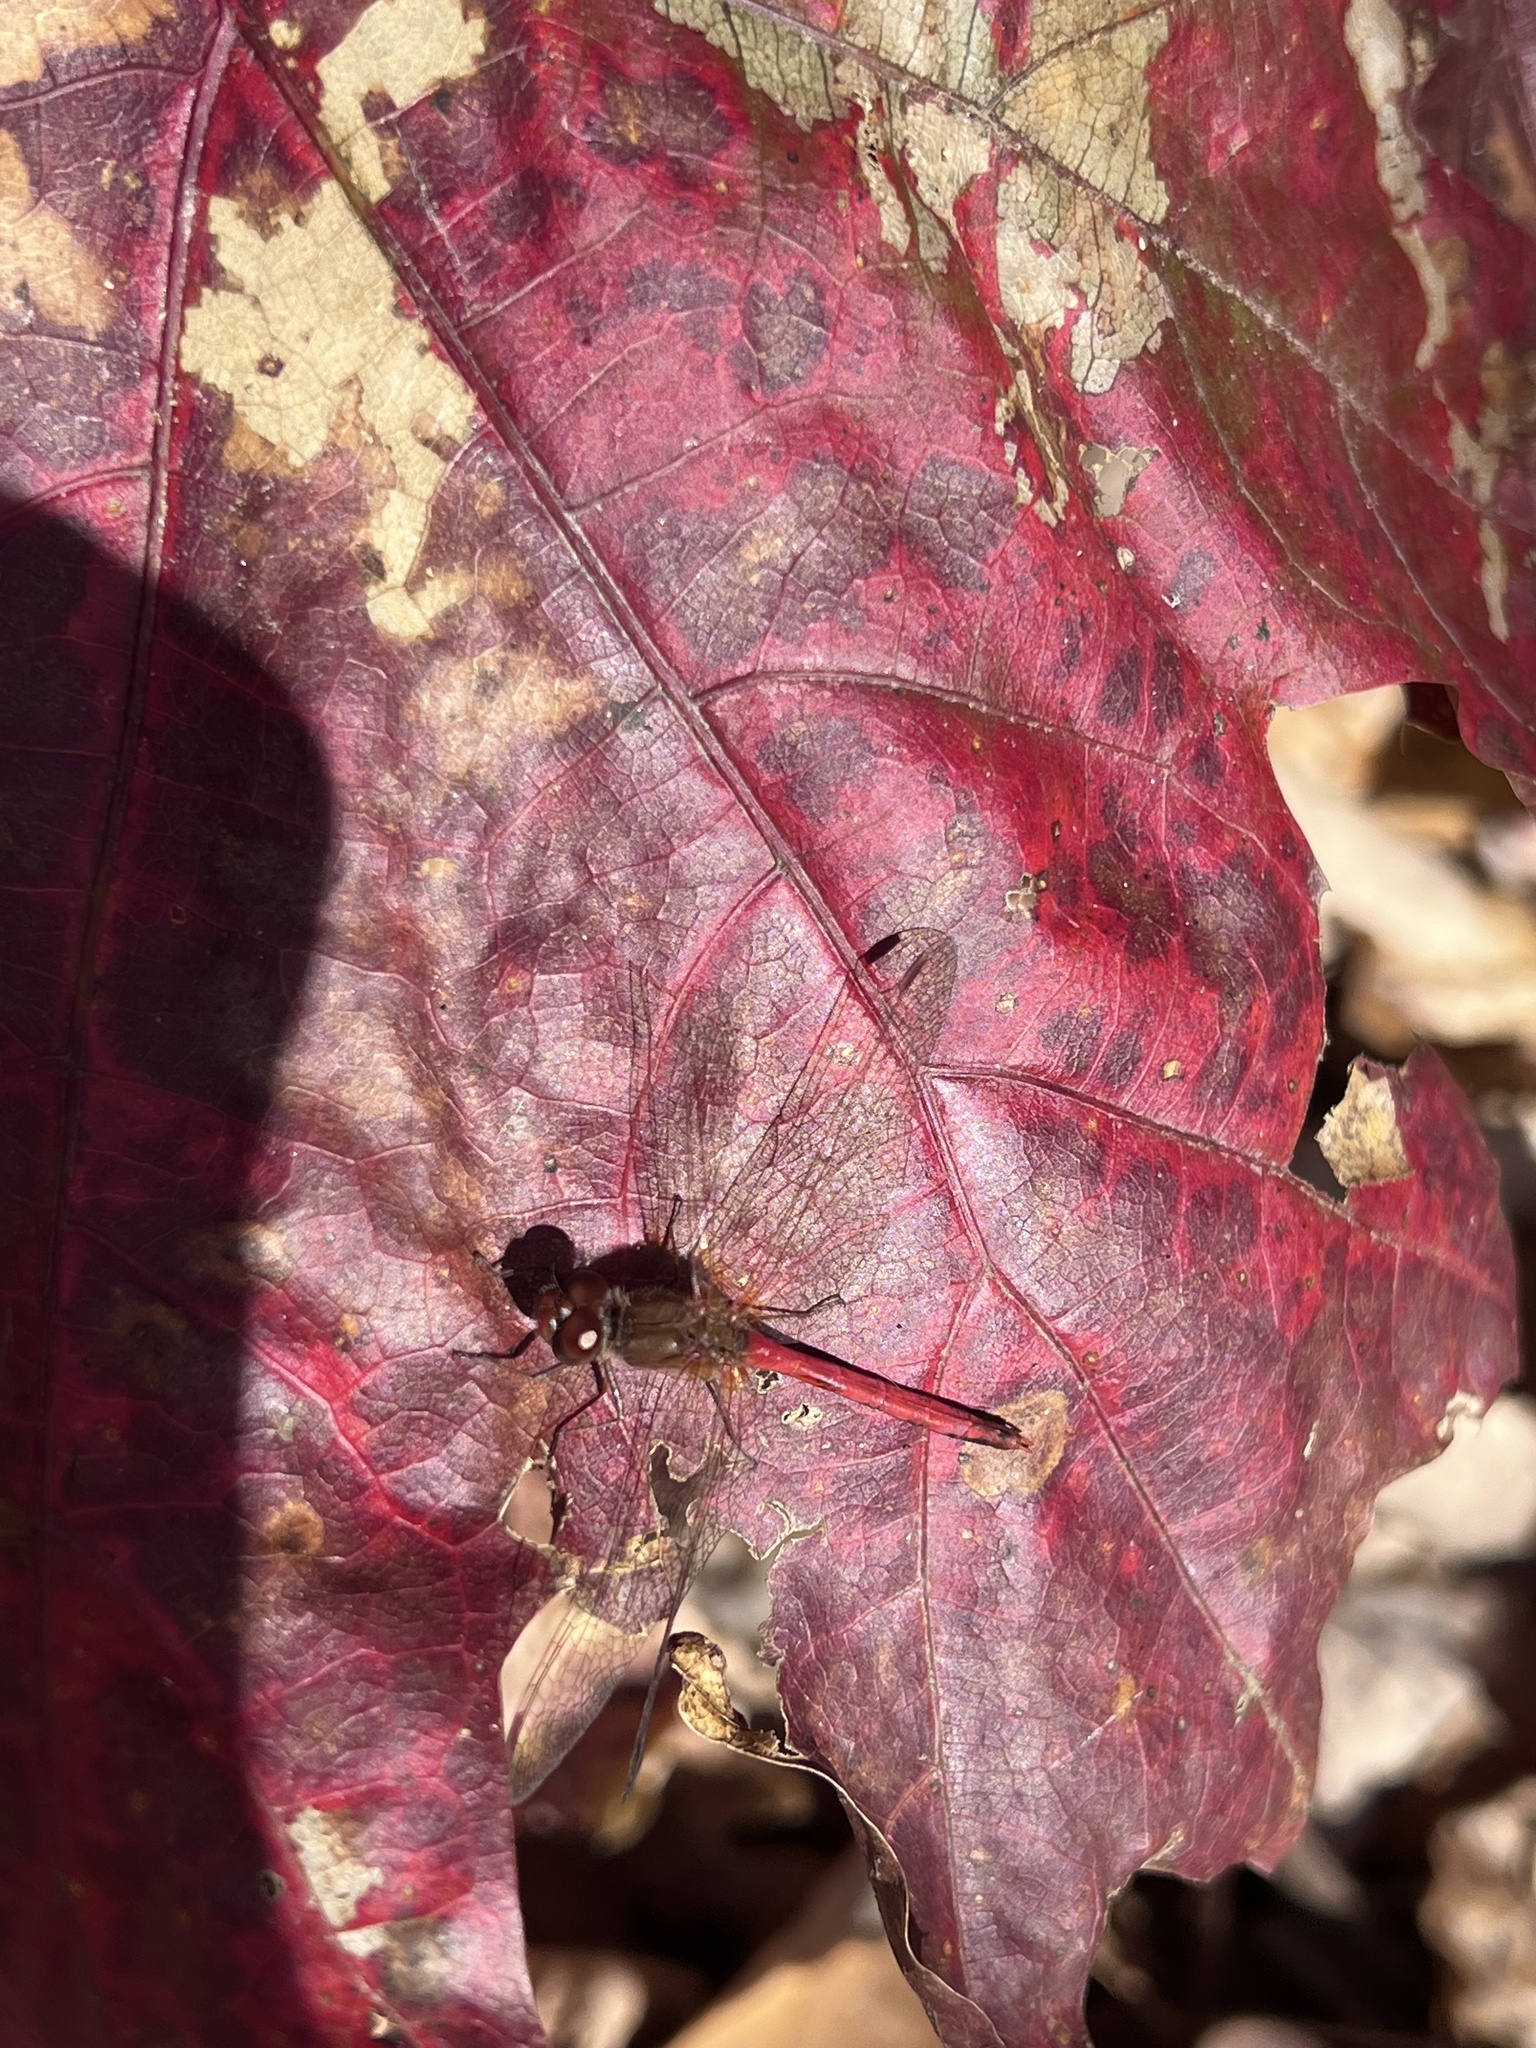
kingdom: Animalia
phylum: Arthropoda
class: Insecta
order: Odonata
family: Libellulidae
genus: Sympetrum
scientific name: Sympetrum vicinum
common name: Autumn meadowhawk
